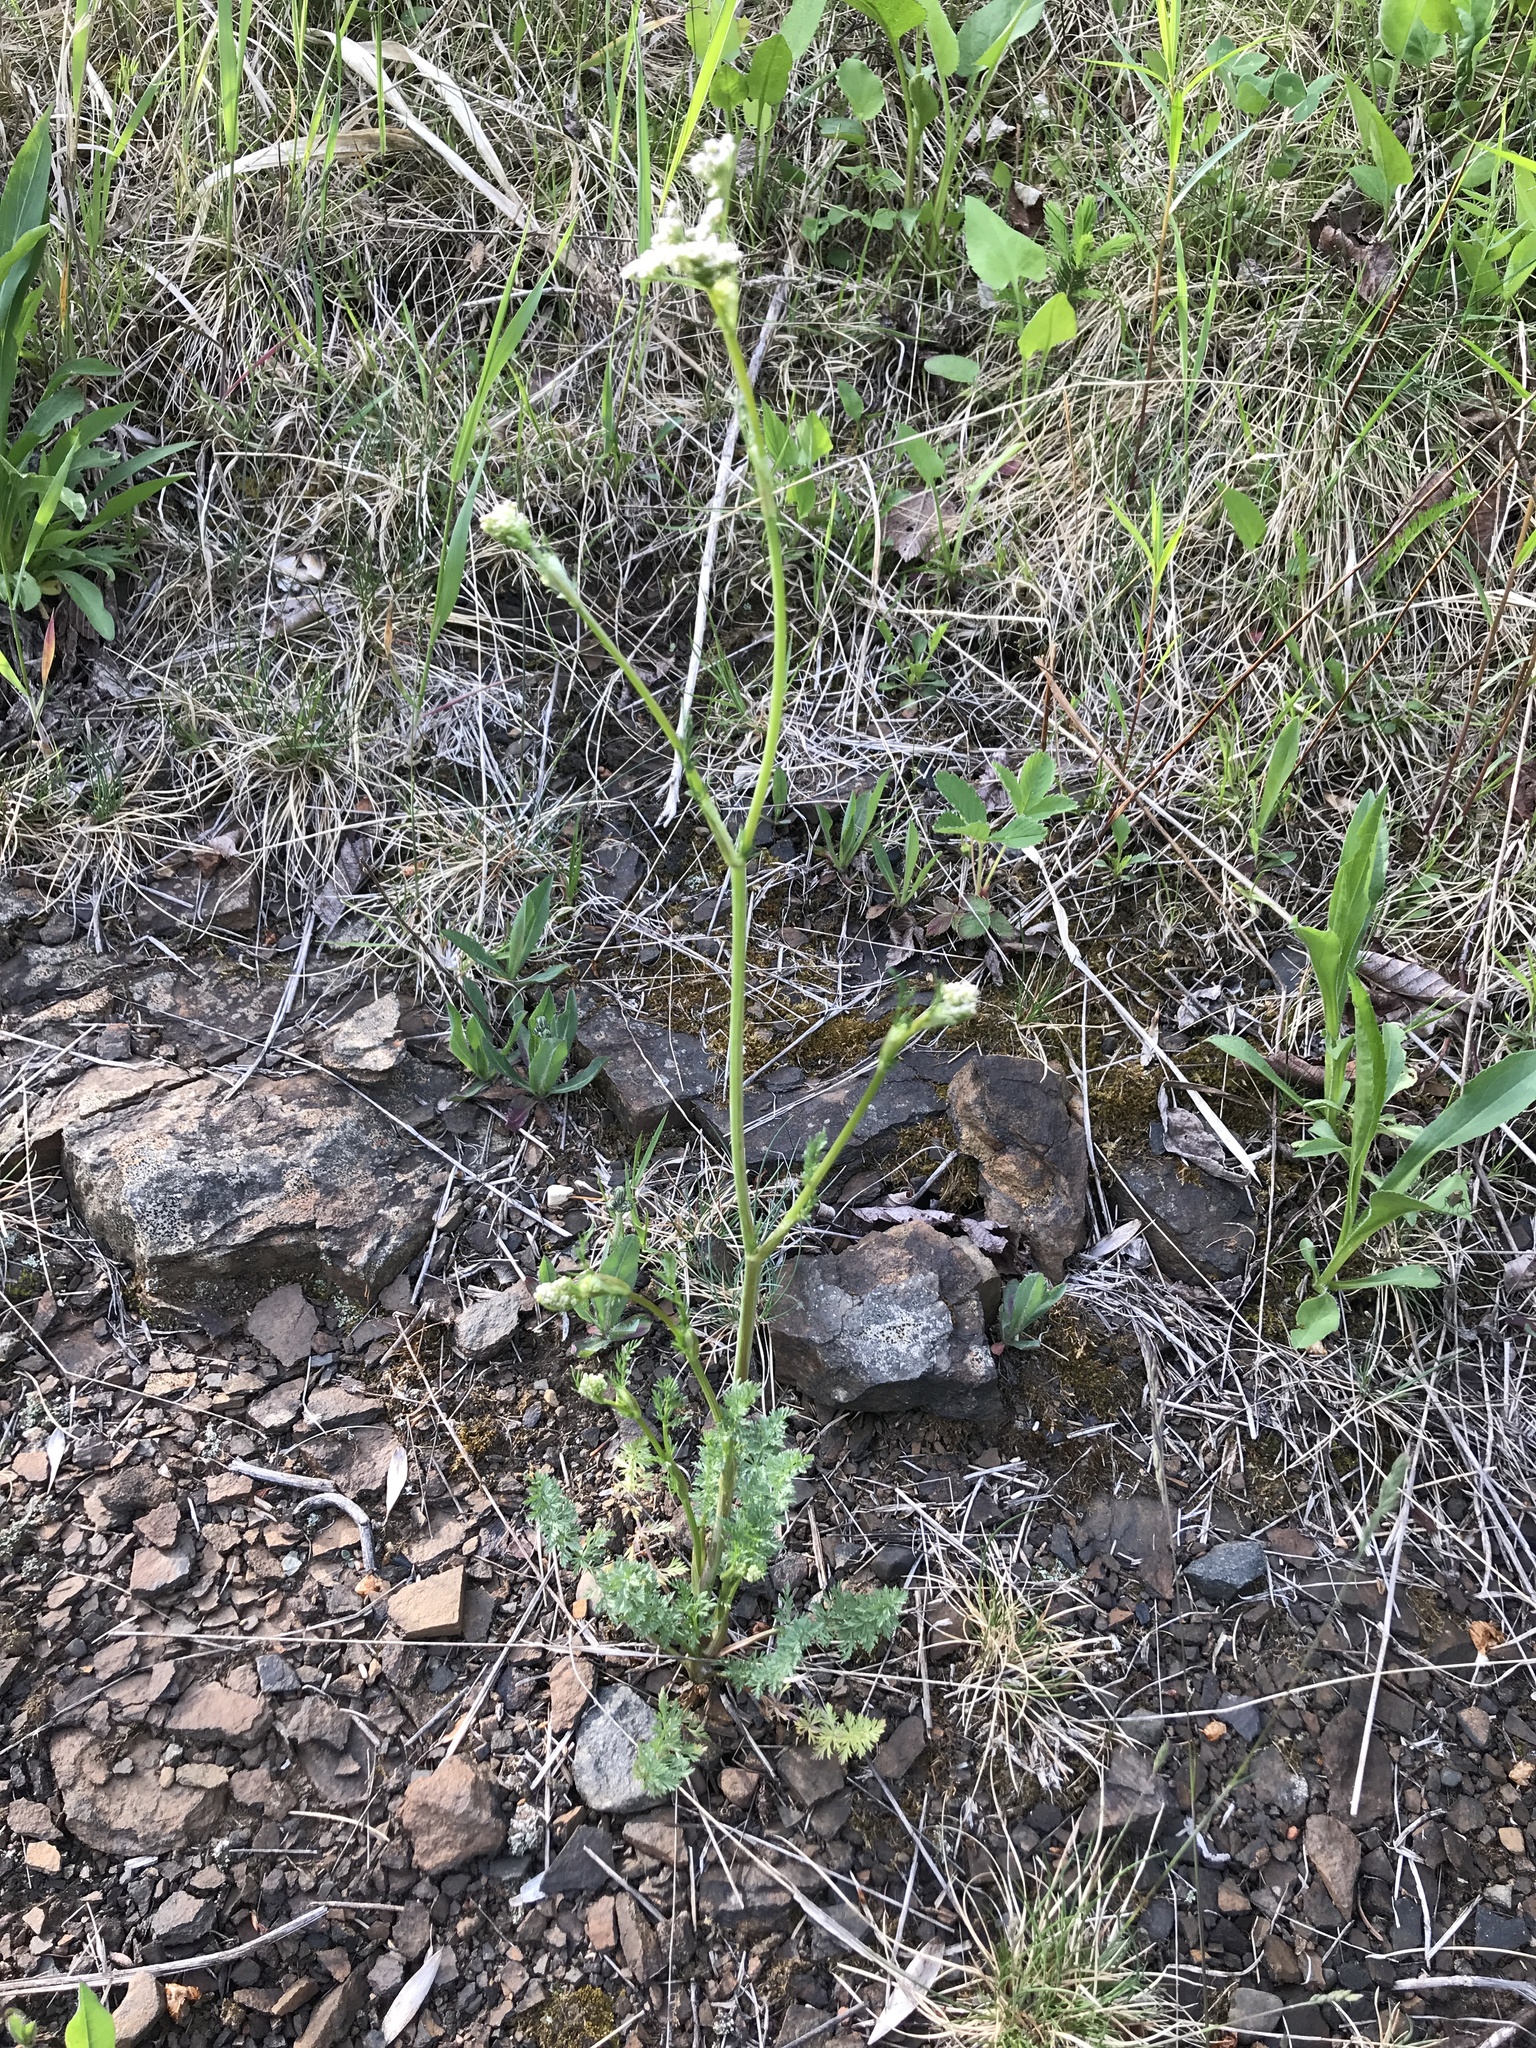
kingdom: Plantae
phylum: Tracheophyta
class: Magnoliopsida
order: Apiales
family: Apiaceae
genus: Daucus
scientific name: Daucus carota
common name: Wild carrot
